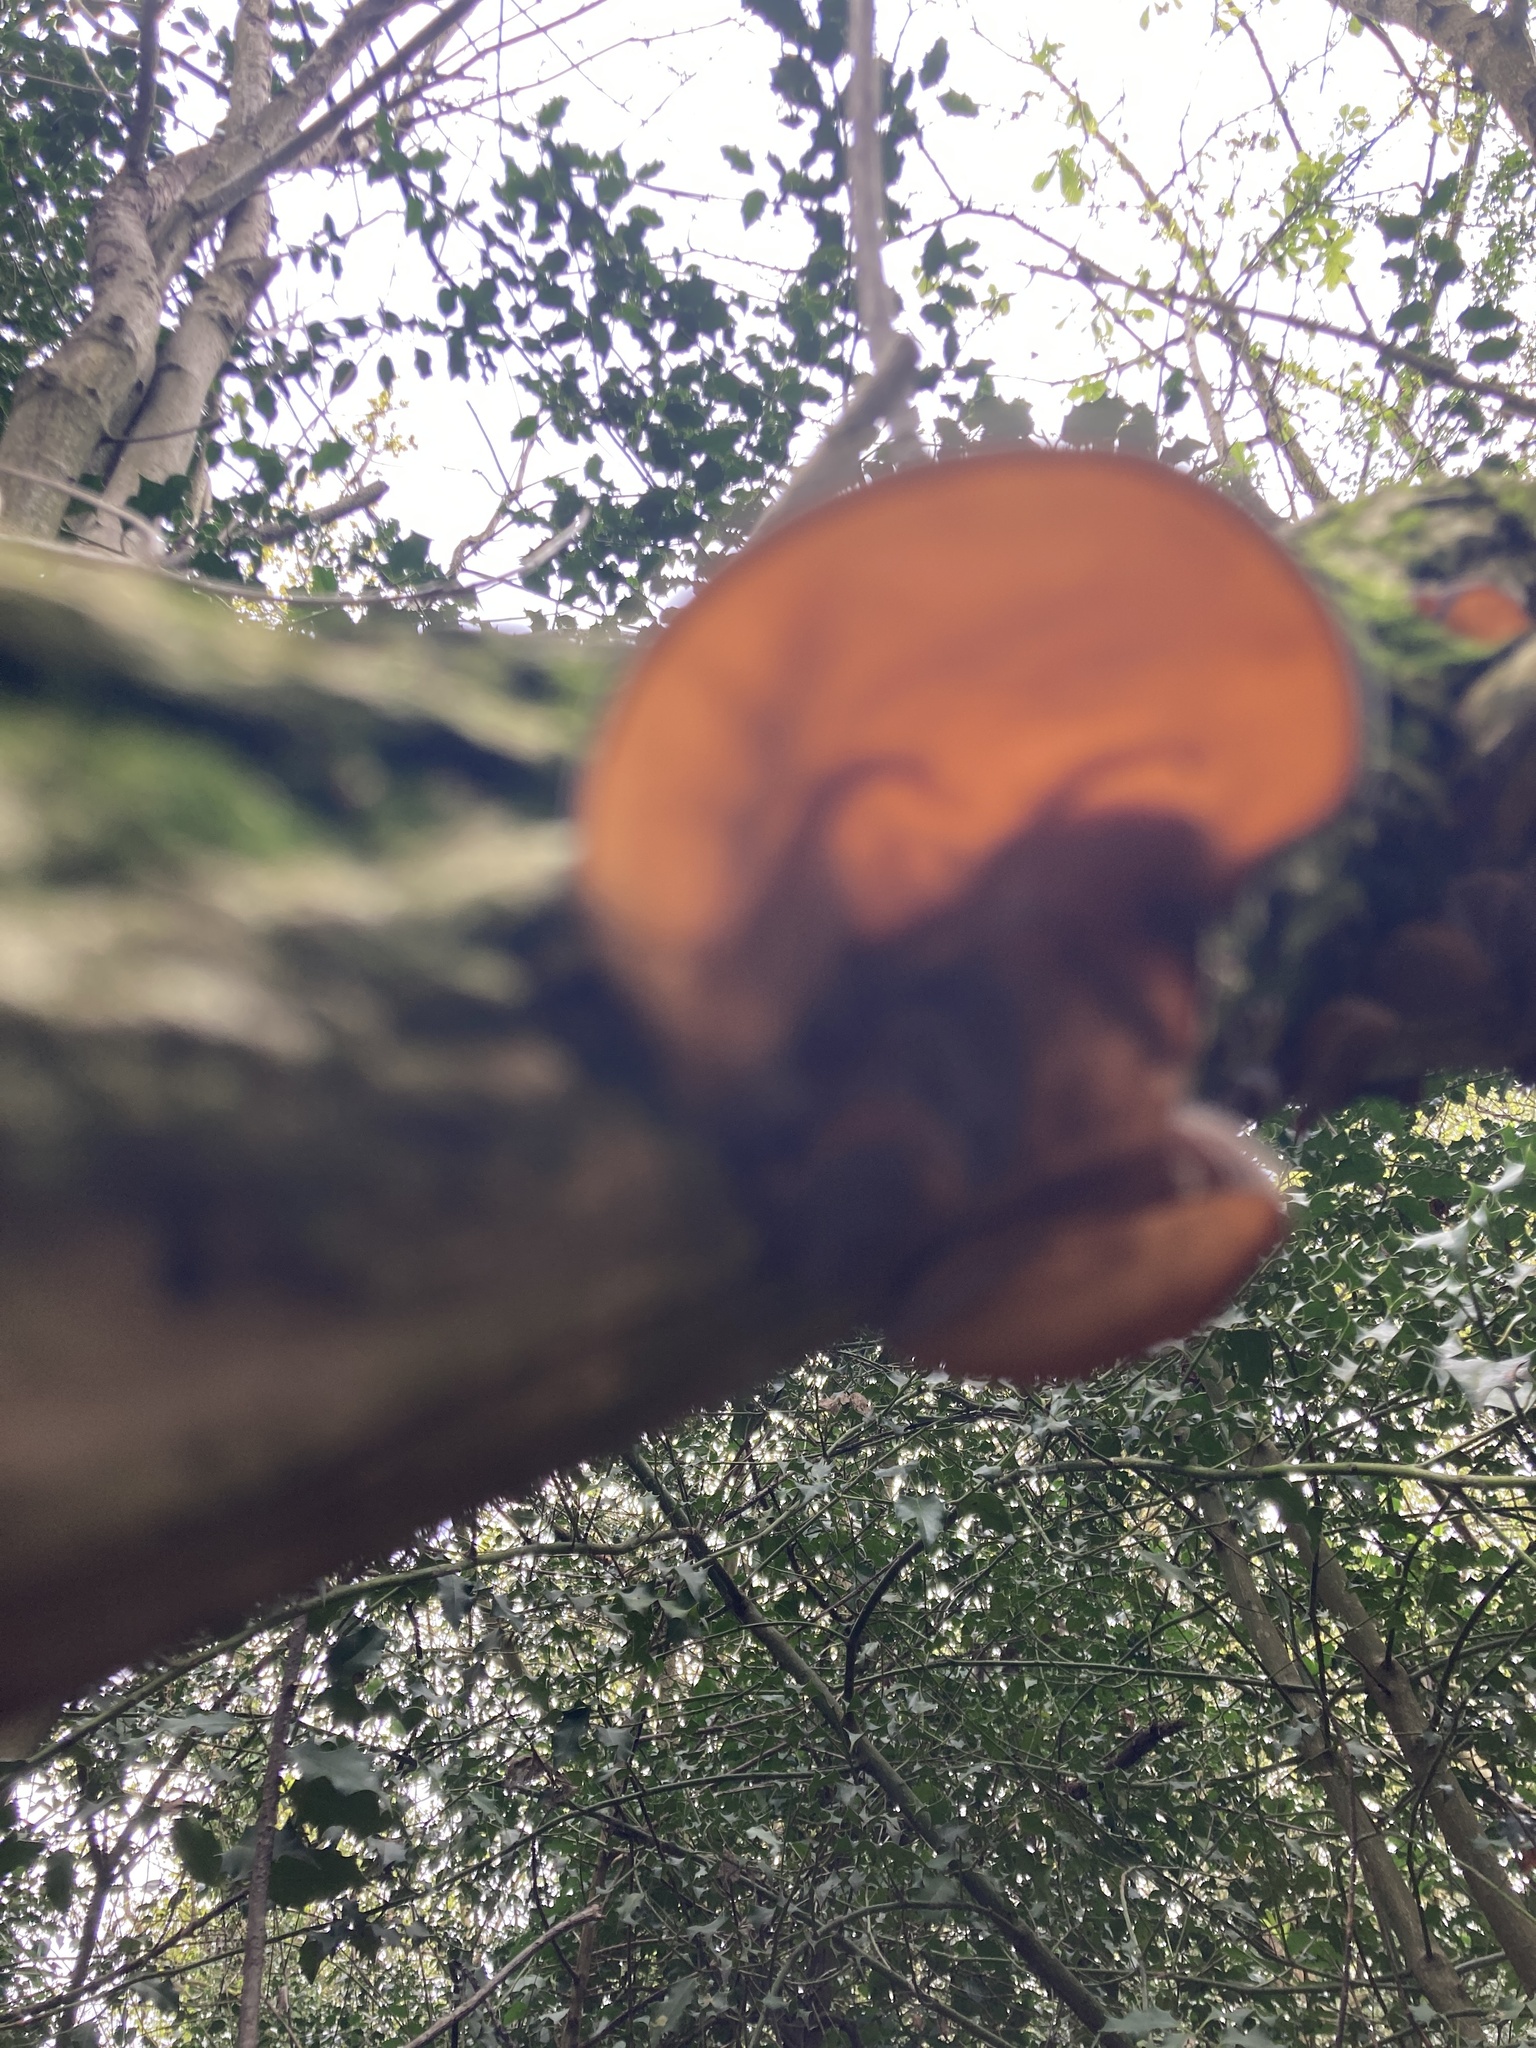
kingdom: Fungi
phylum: Basidiomycota
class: Agaricomycetes
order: Auriculariales
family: Auriculariaceae
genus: Auricularia
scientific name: Auricularia auricula-judae
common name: Jelly ear
